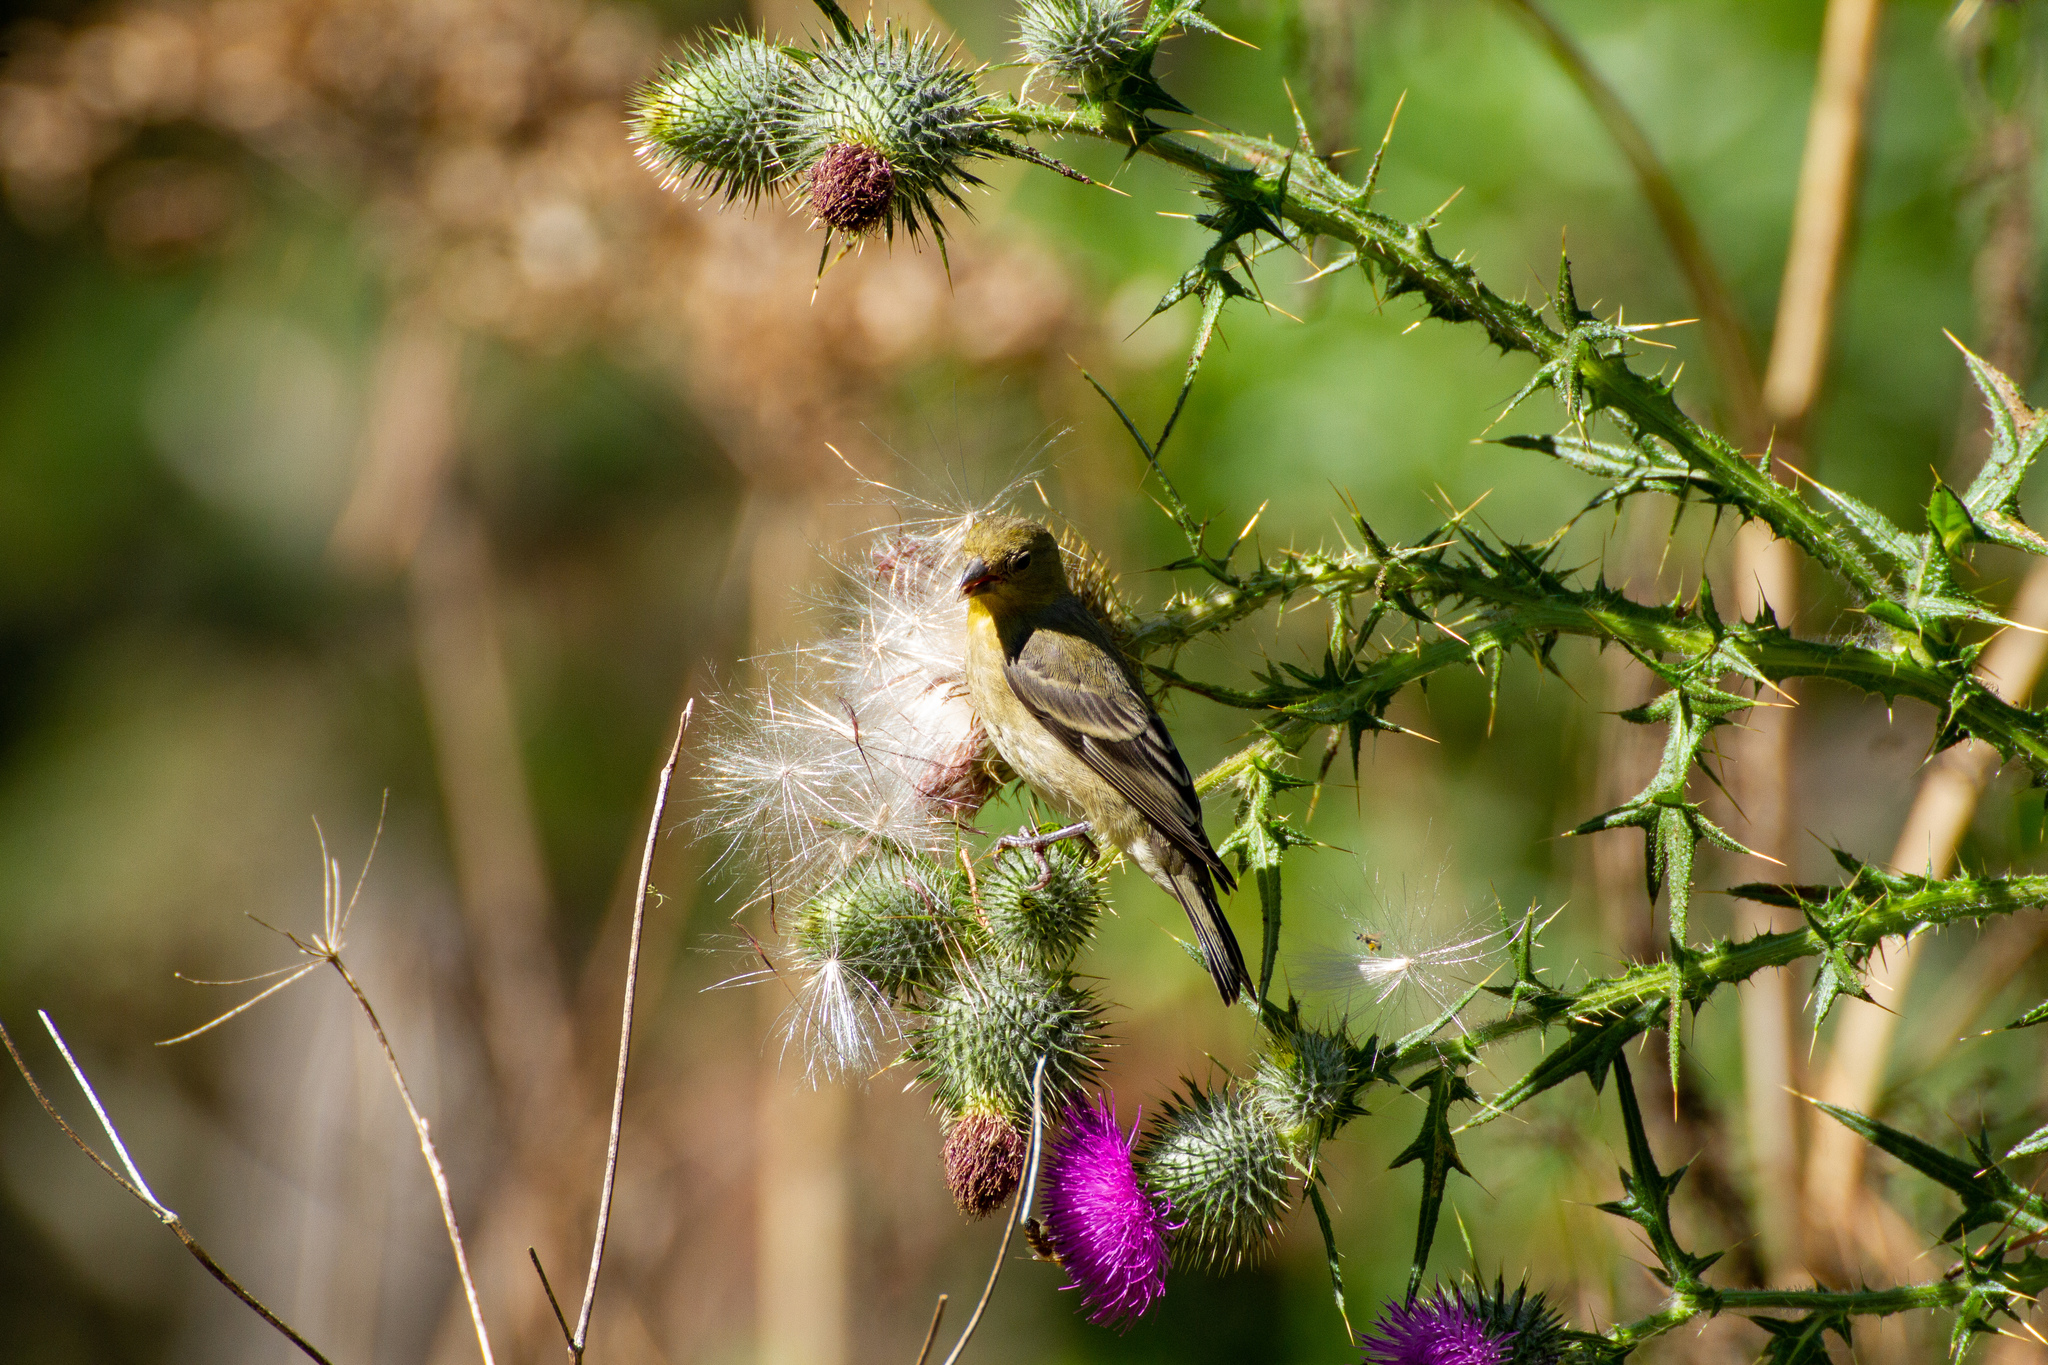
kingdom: Animalia
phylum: Chordata
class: Aves
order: Passeriformes
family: Fringillidae
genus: Spinus
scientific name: Spinus psaltria
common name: Lesser goldfinch
